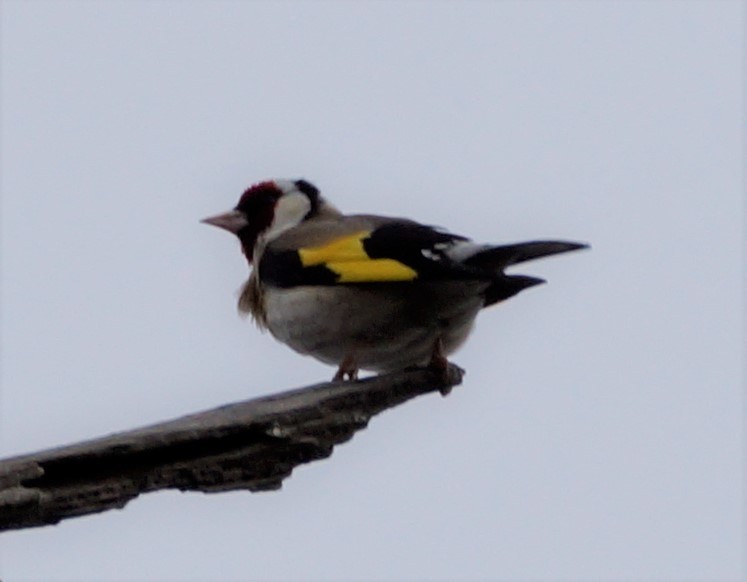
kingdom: Animalia
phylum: Chordata
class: Aves
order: Passeriformes
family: Fringillidae
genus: Carduelis
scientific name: Carduelis carduelis
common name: European goldfinch
